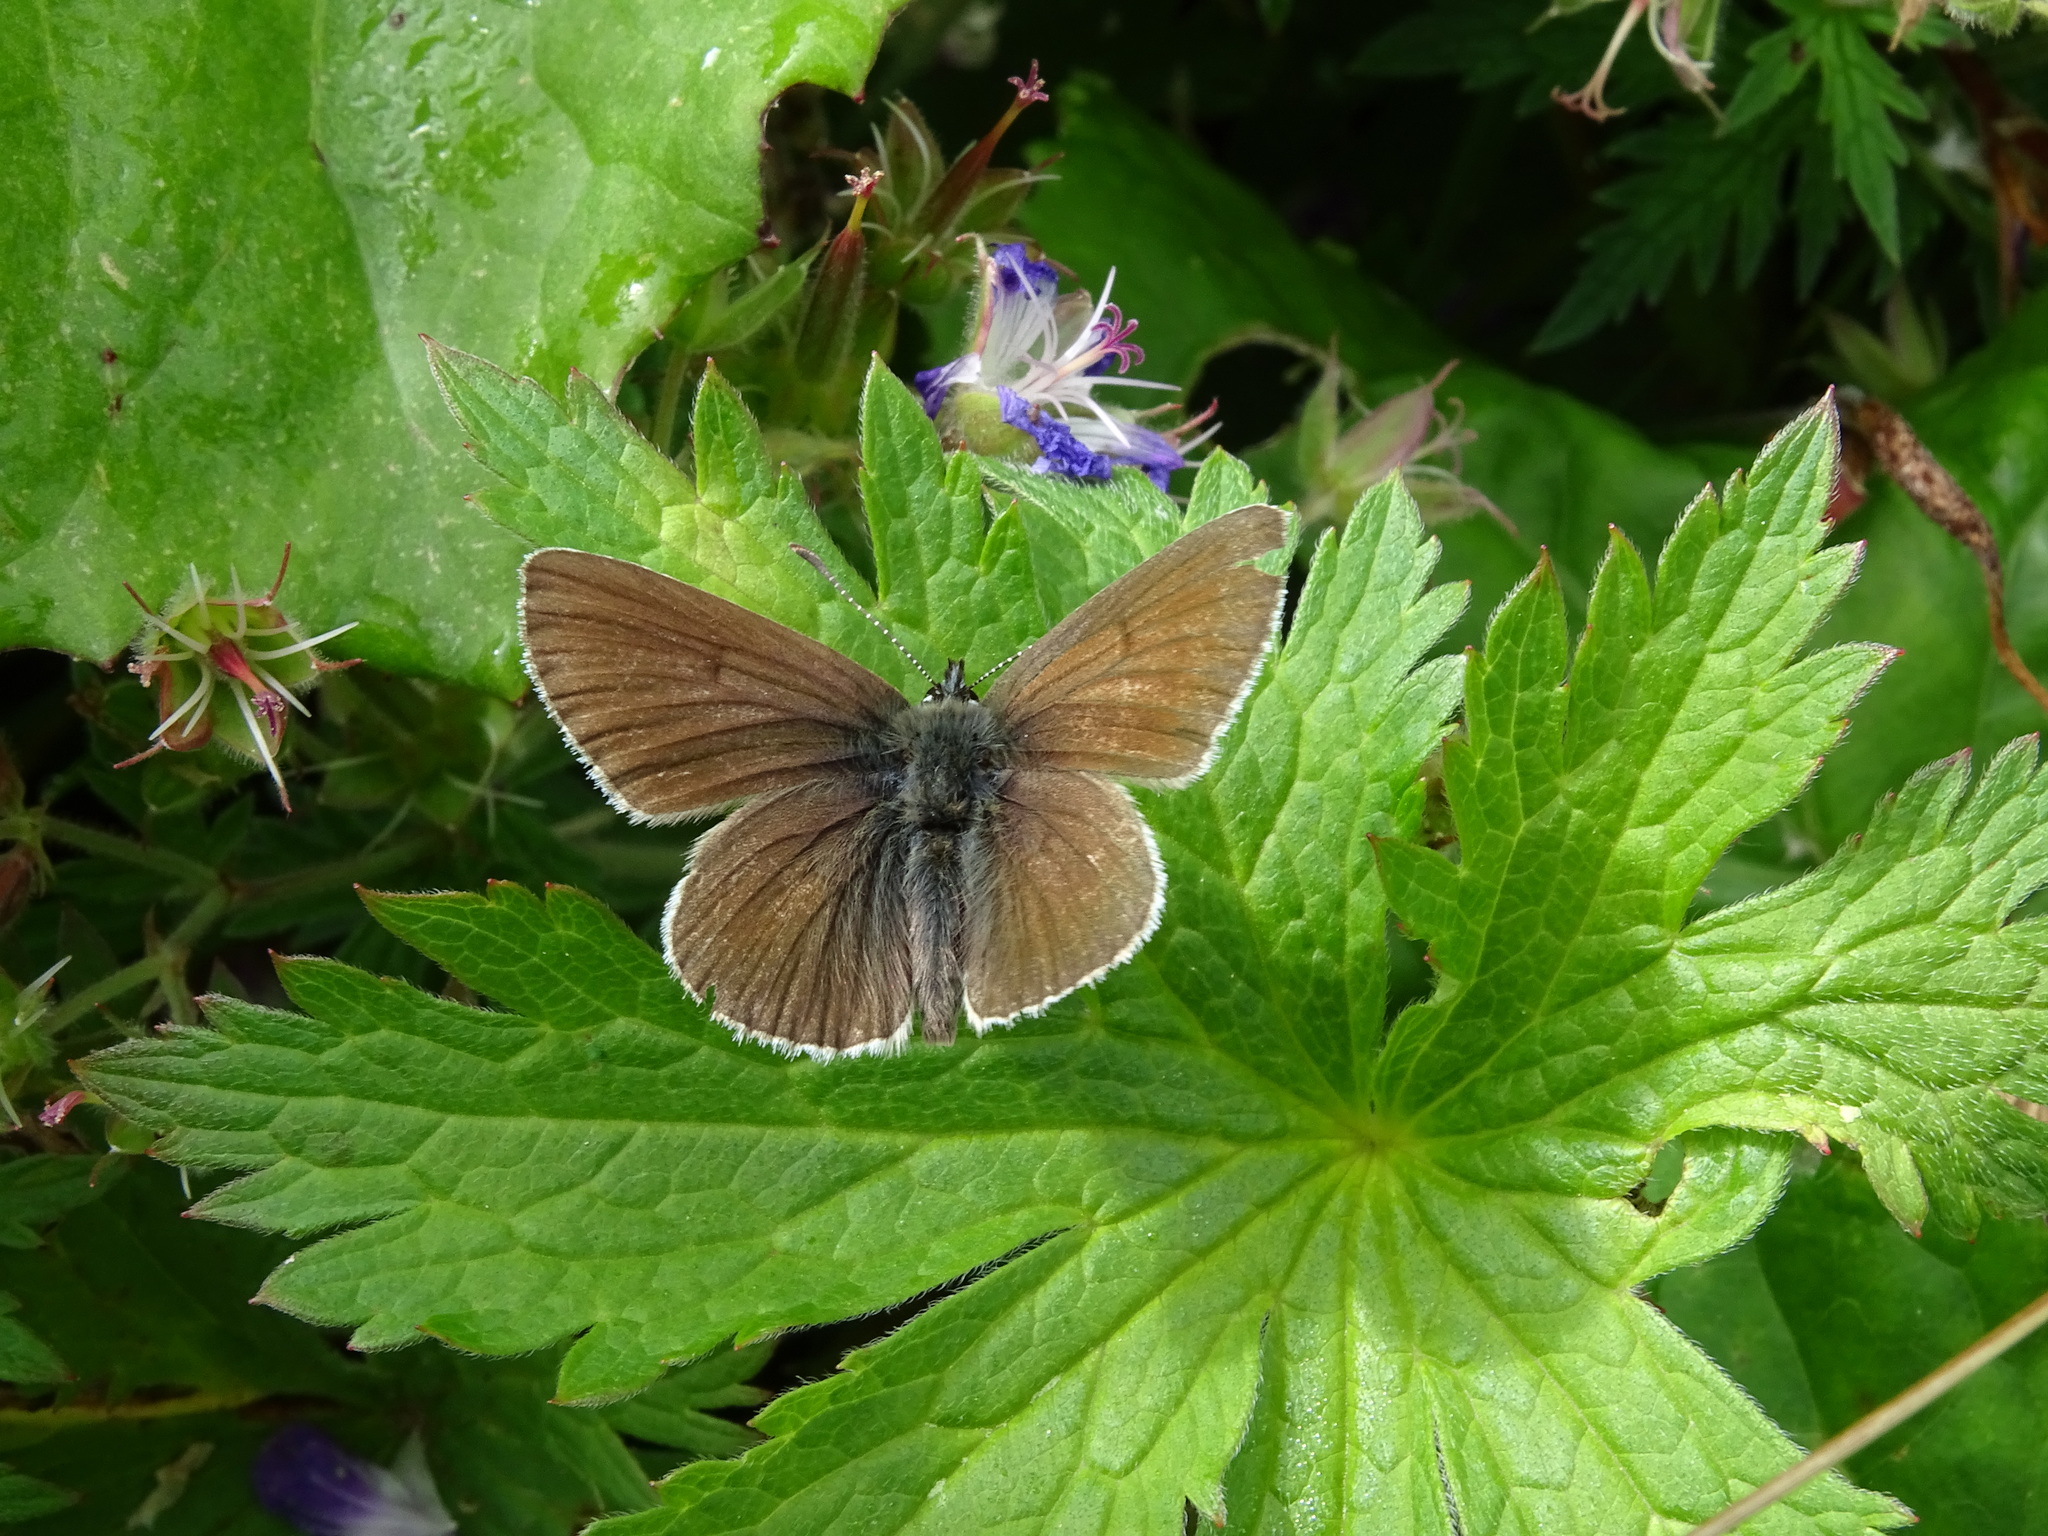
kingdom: Animalia
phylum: Arthropoda
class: Insecta
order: Lepidoptera
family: Lycaenidae
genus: Eumedonia
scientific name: Eumedonia eumedon
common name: Geranium argus
